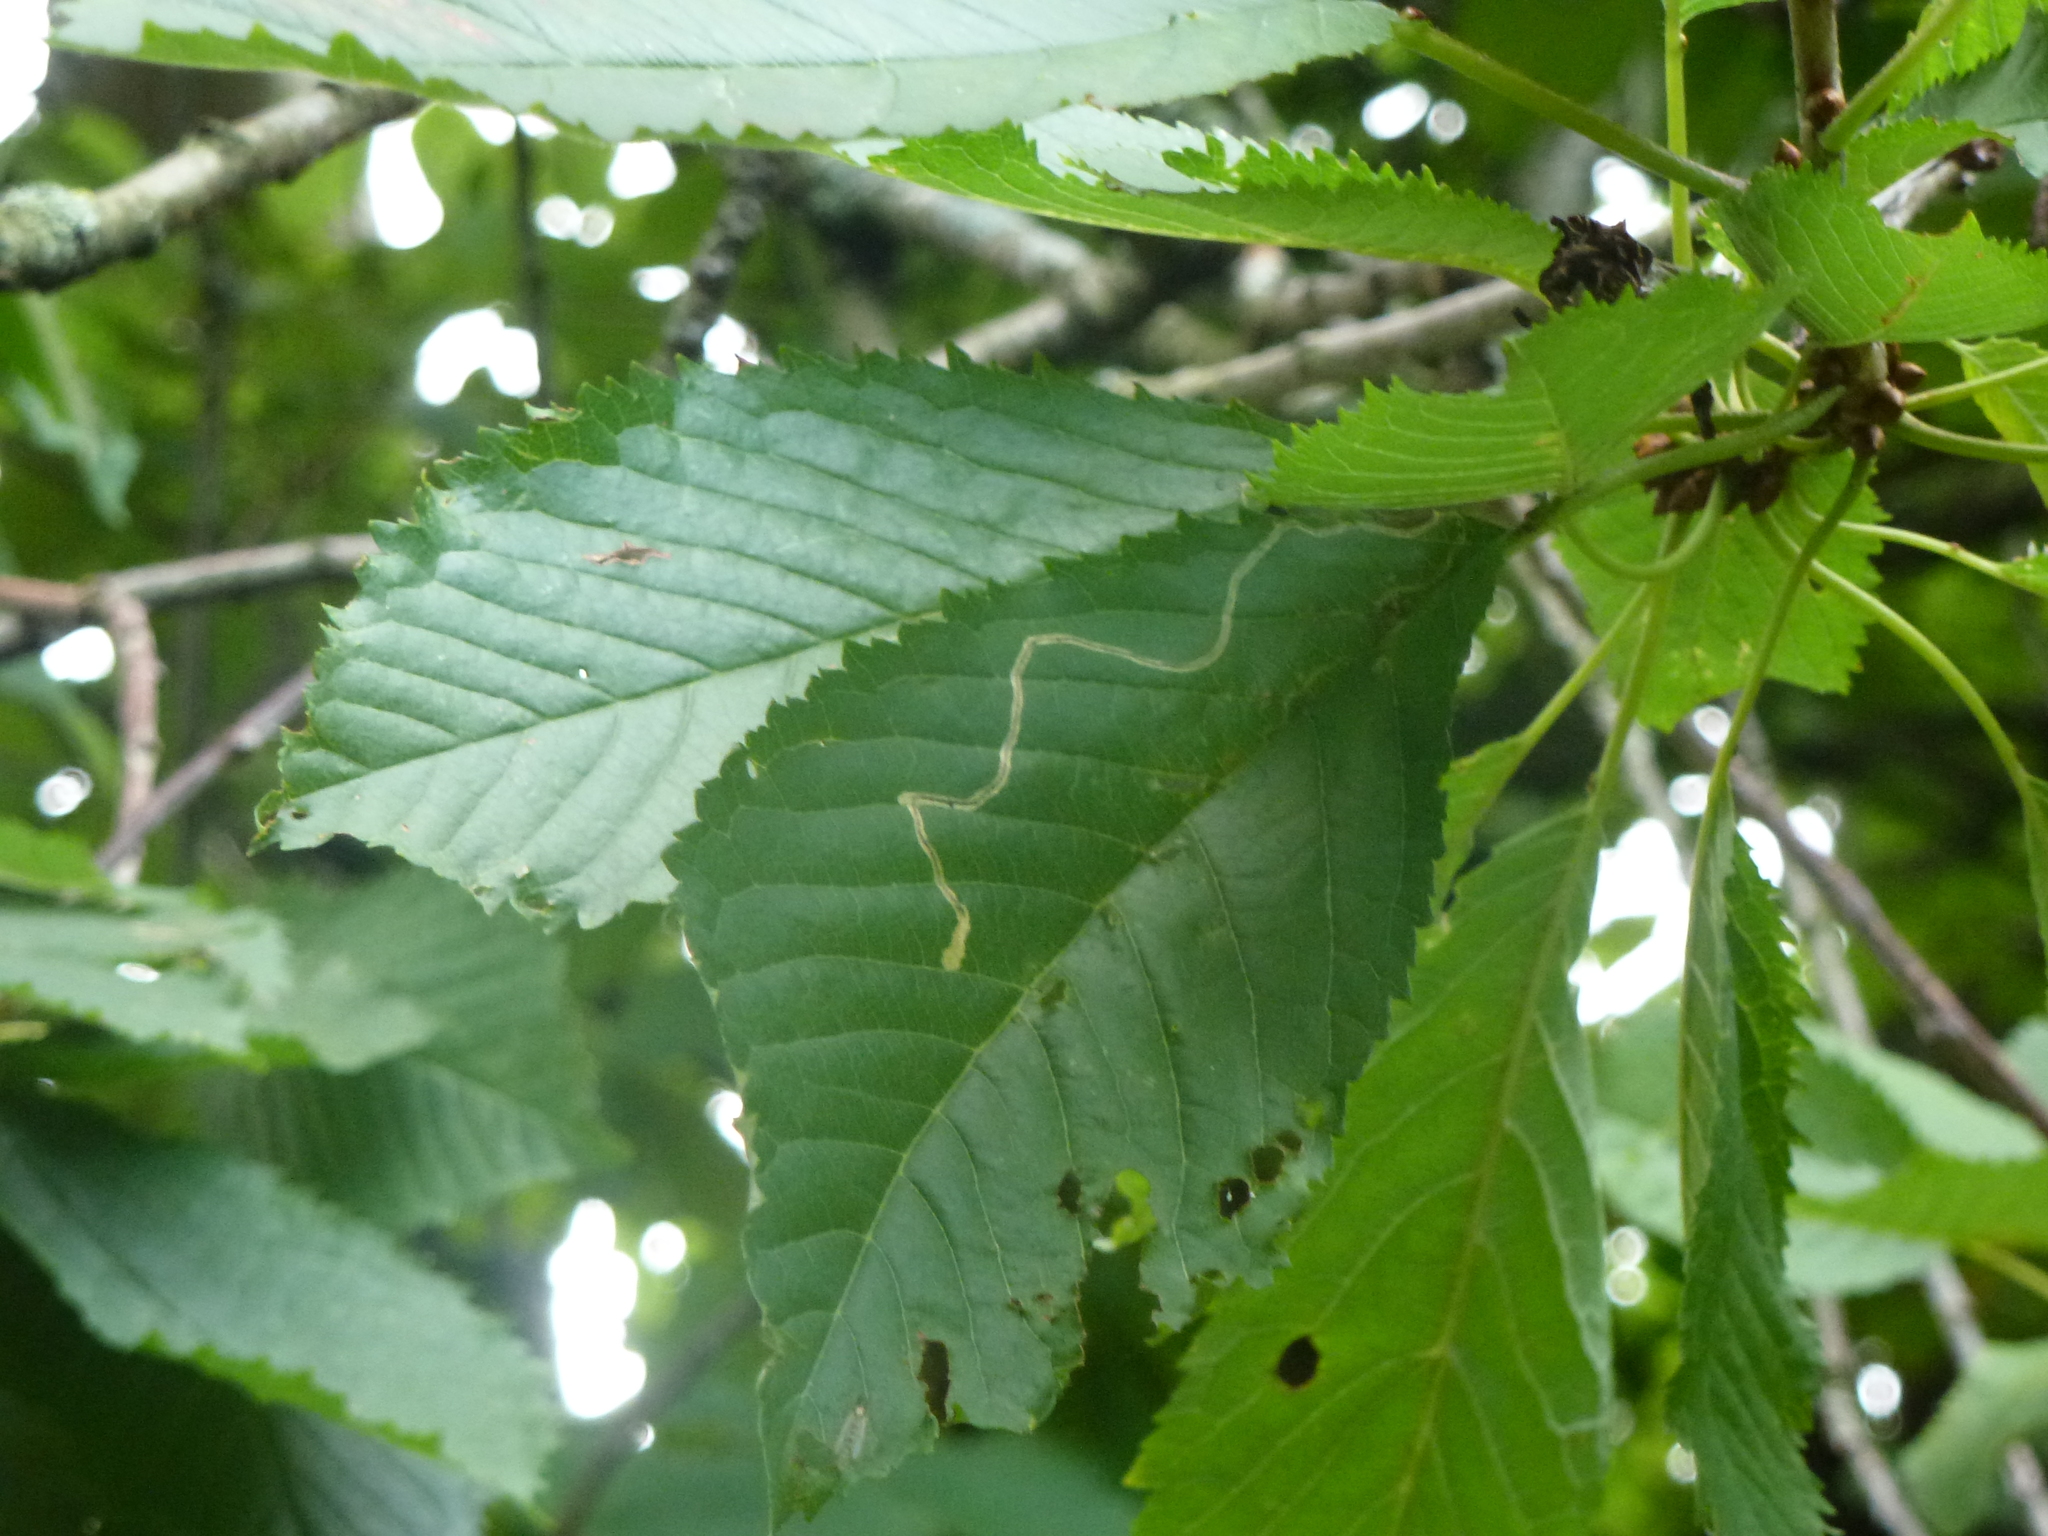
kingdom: Animalia
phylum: Arthropoda
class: Insecta
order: Lepidoptera
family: Lyonetiidae
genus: Lyonetia
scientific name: Lyonetia clerkella
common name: Apple leaf miner
